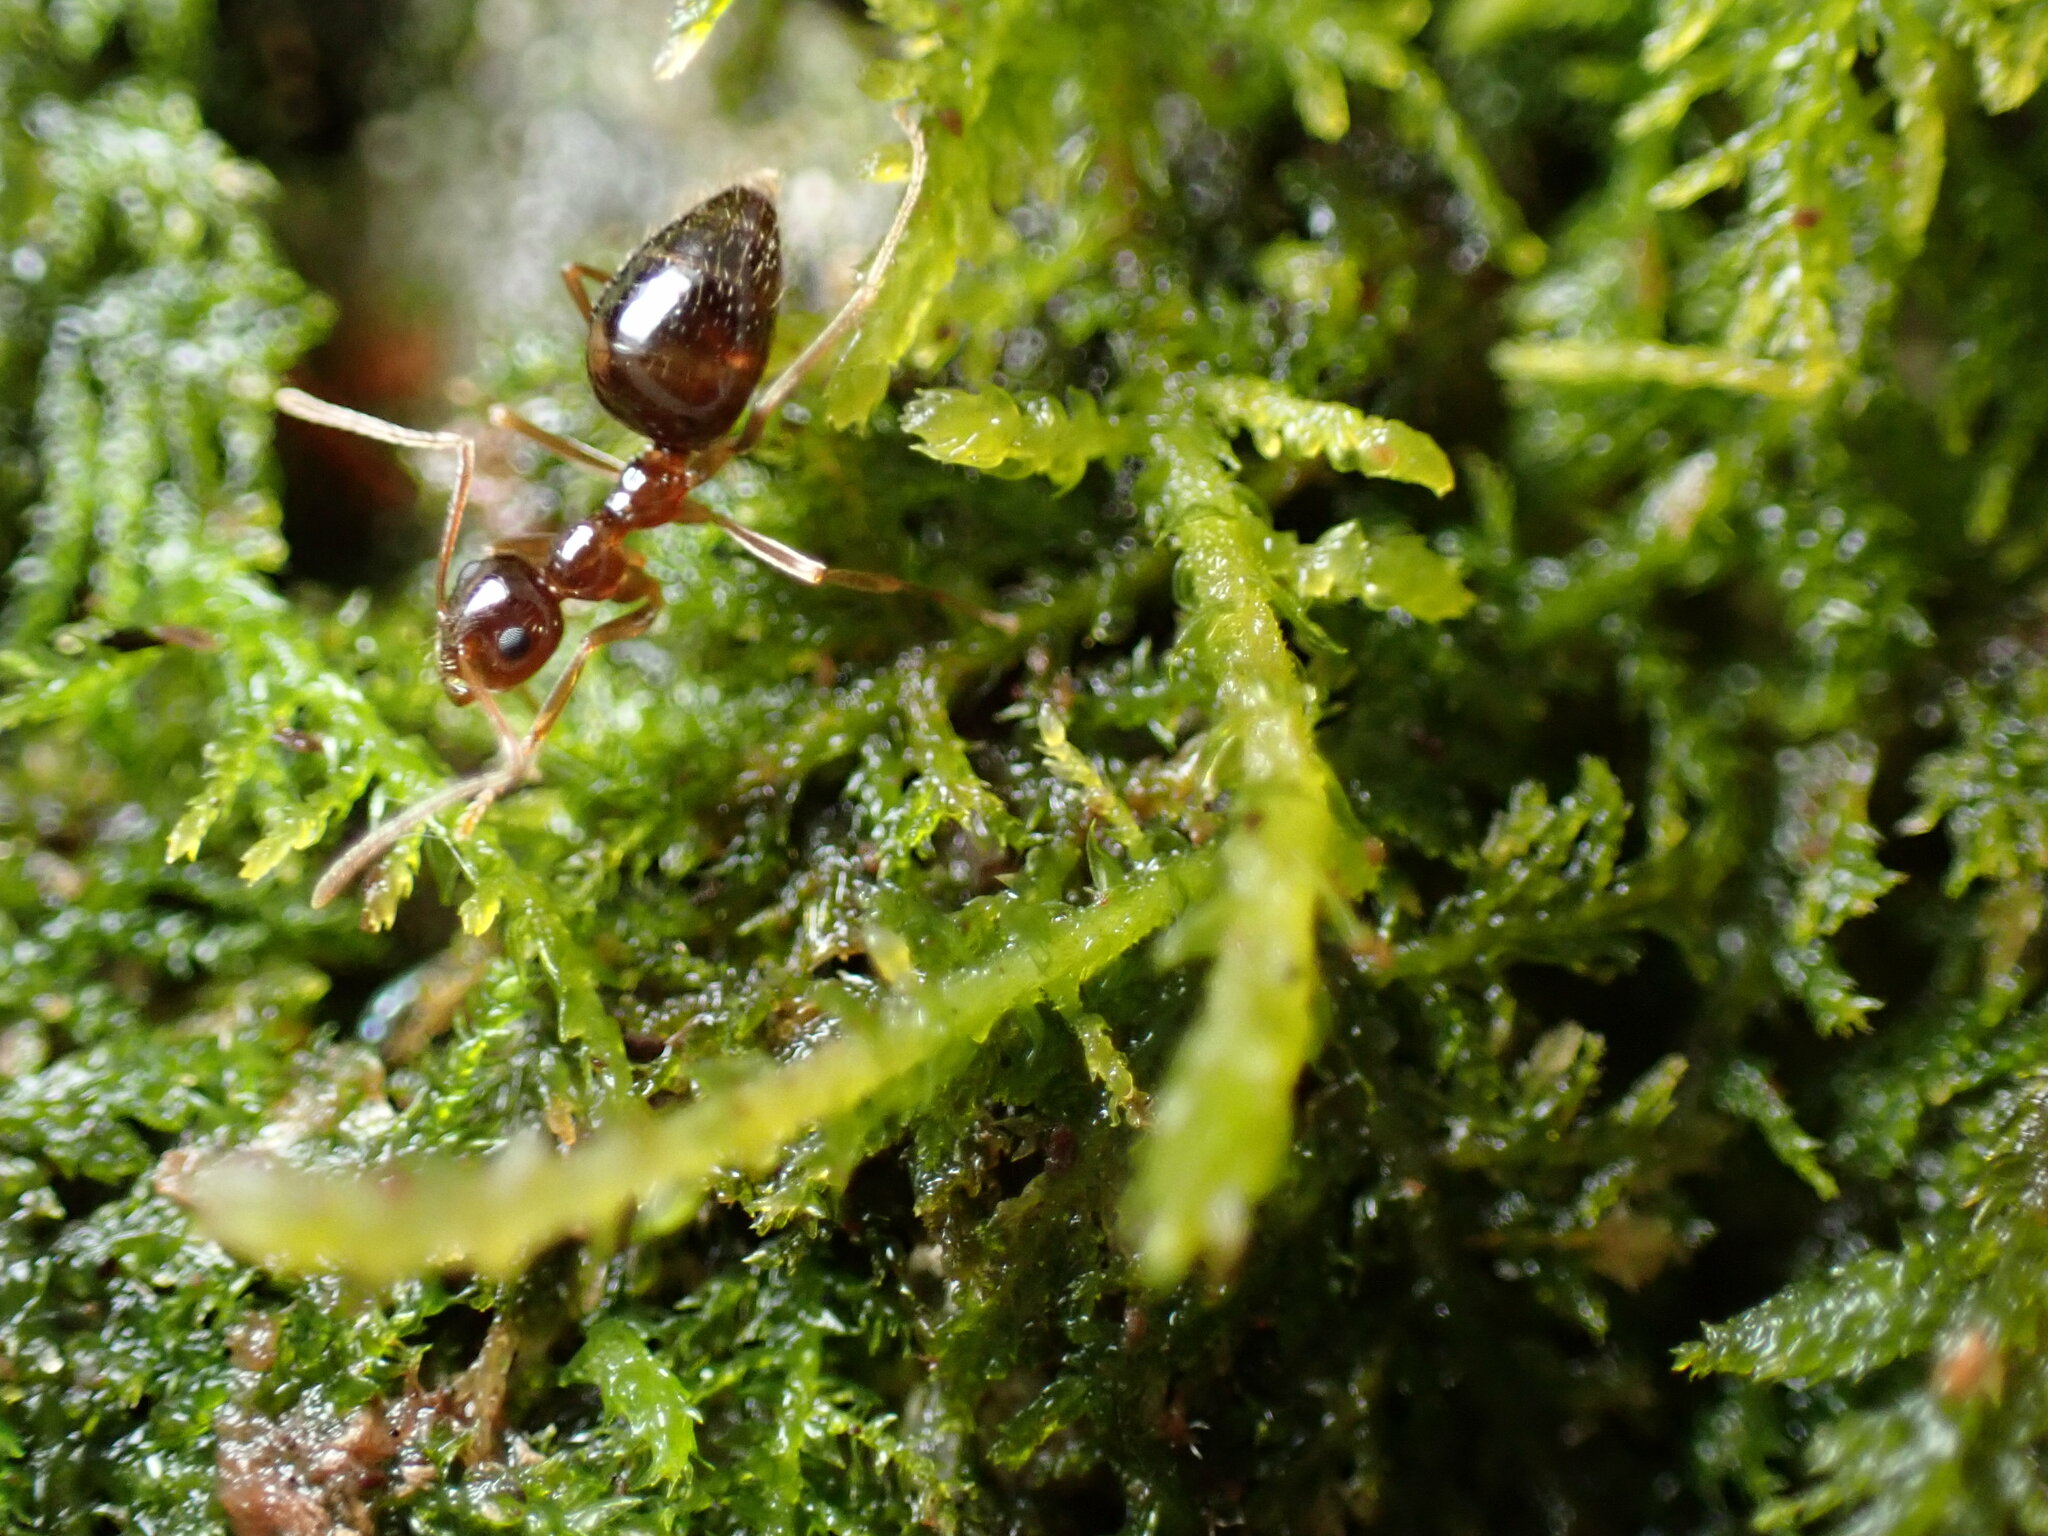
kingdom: Animalia
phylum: Arthropoda
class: Insecta
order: Hymenoptera
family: Formicidae
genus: Prenolepis
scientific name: Prenolepis imparis
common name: Small honey ant
